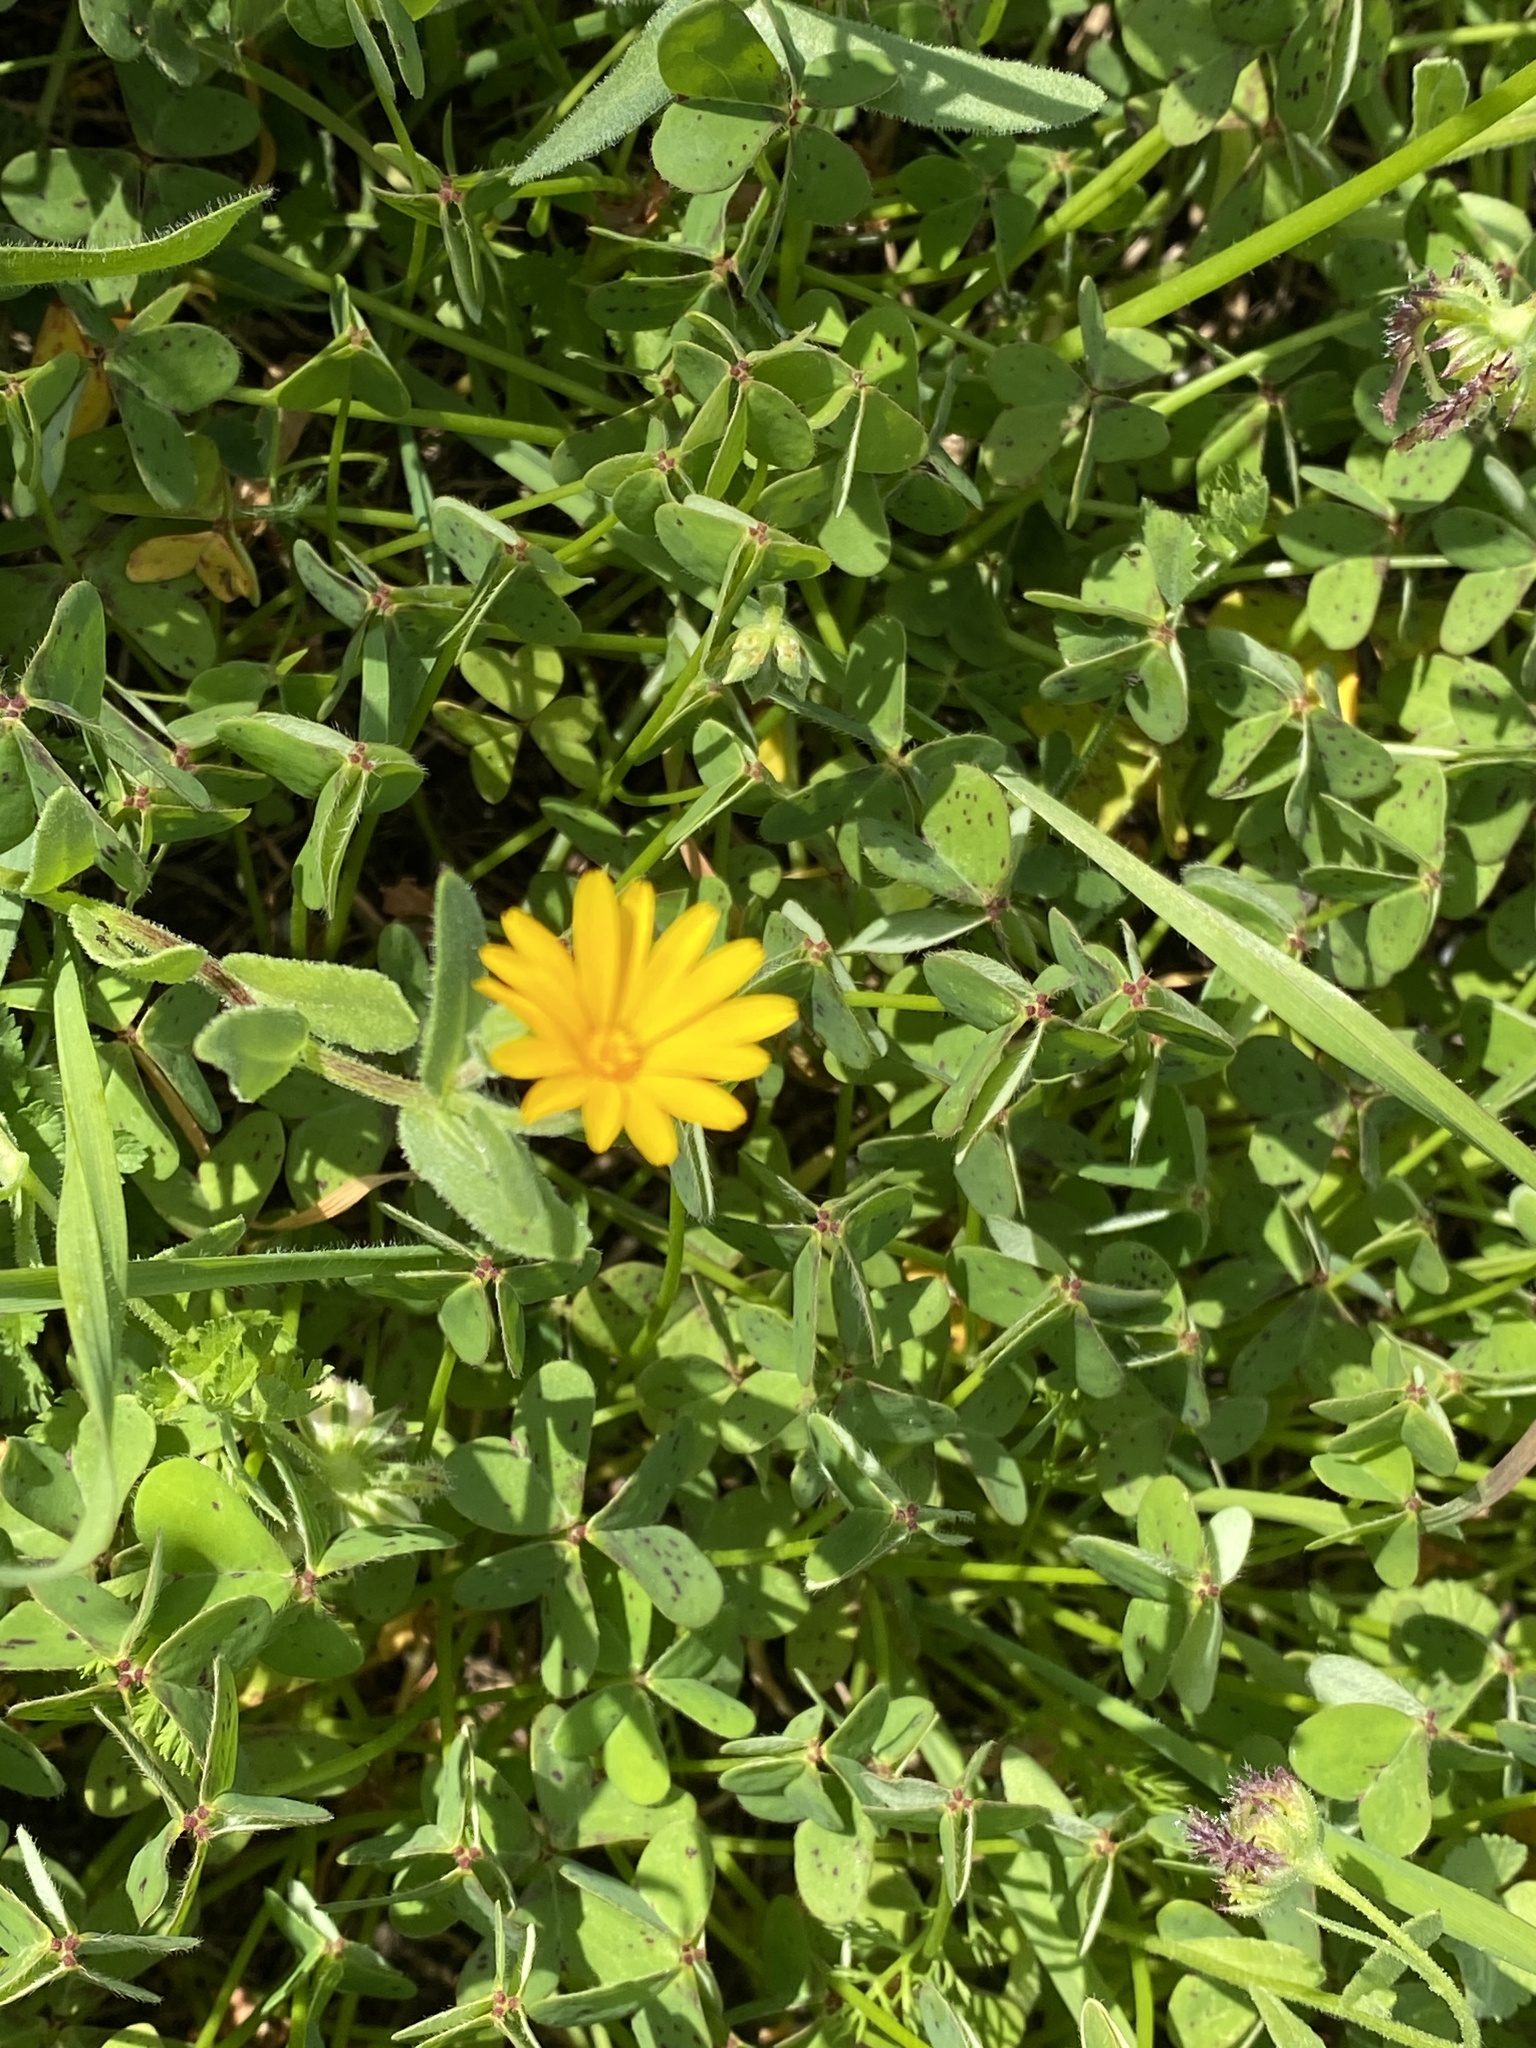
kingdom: Plantae
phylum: Tracheophyta
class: Magnoliopsida
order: Asterales
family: Asteraceae
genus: Calendula
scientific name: Calendula arvensis
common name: Field marigold
